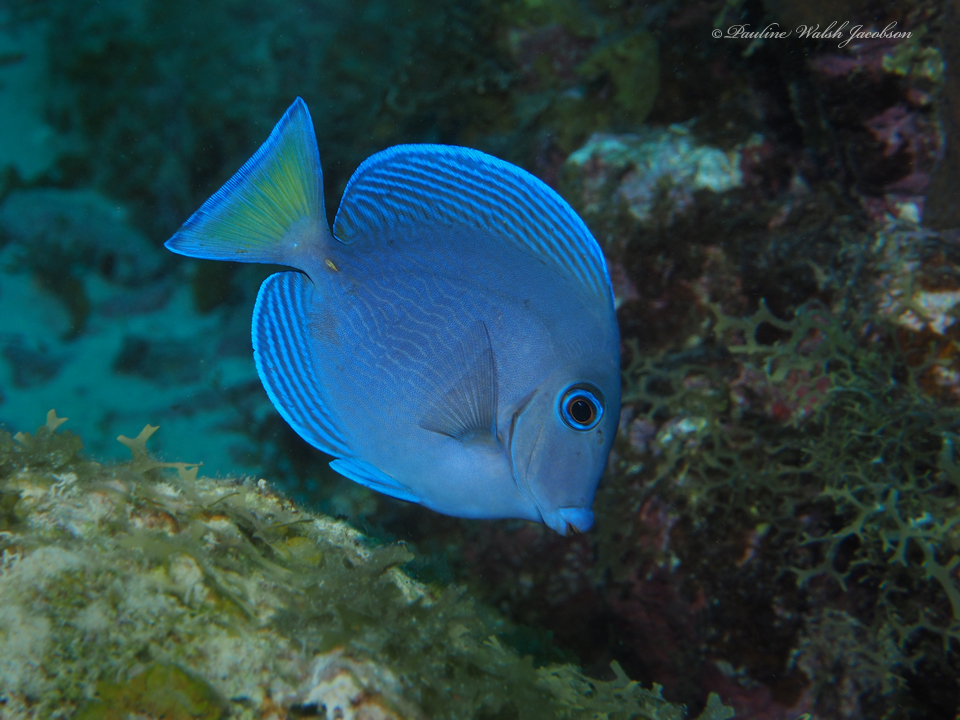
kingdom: Animalia
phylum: Chordata
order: Perciformes
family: Acanthuridae
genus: Acanthurus
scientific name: Acanthurus coeruleus
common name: Blue tang
